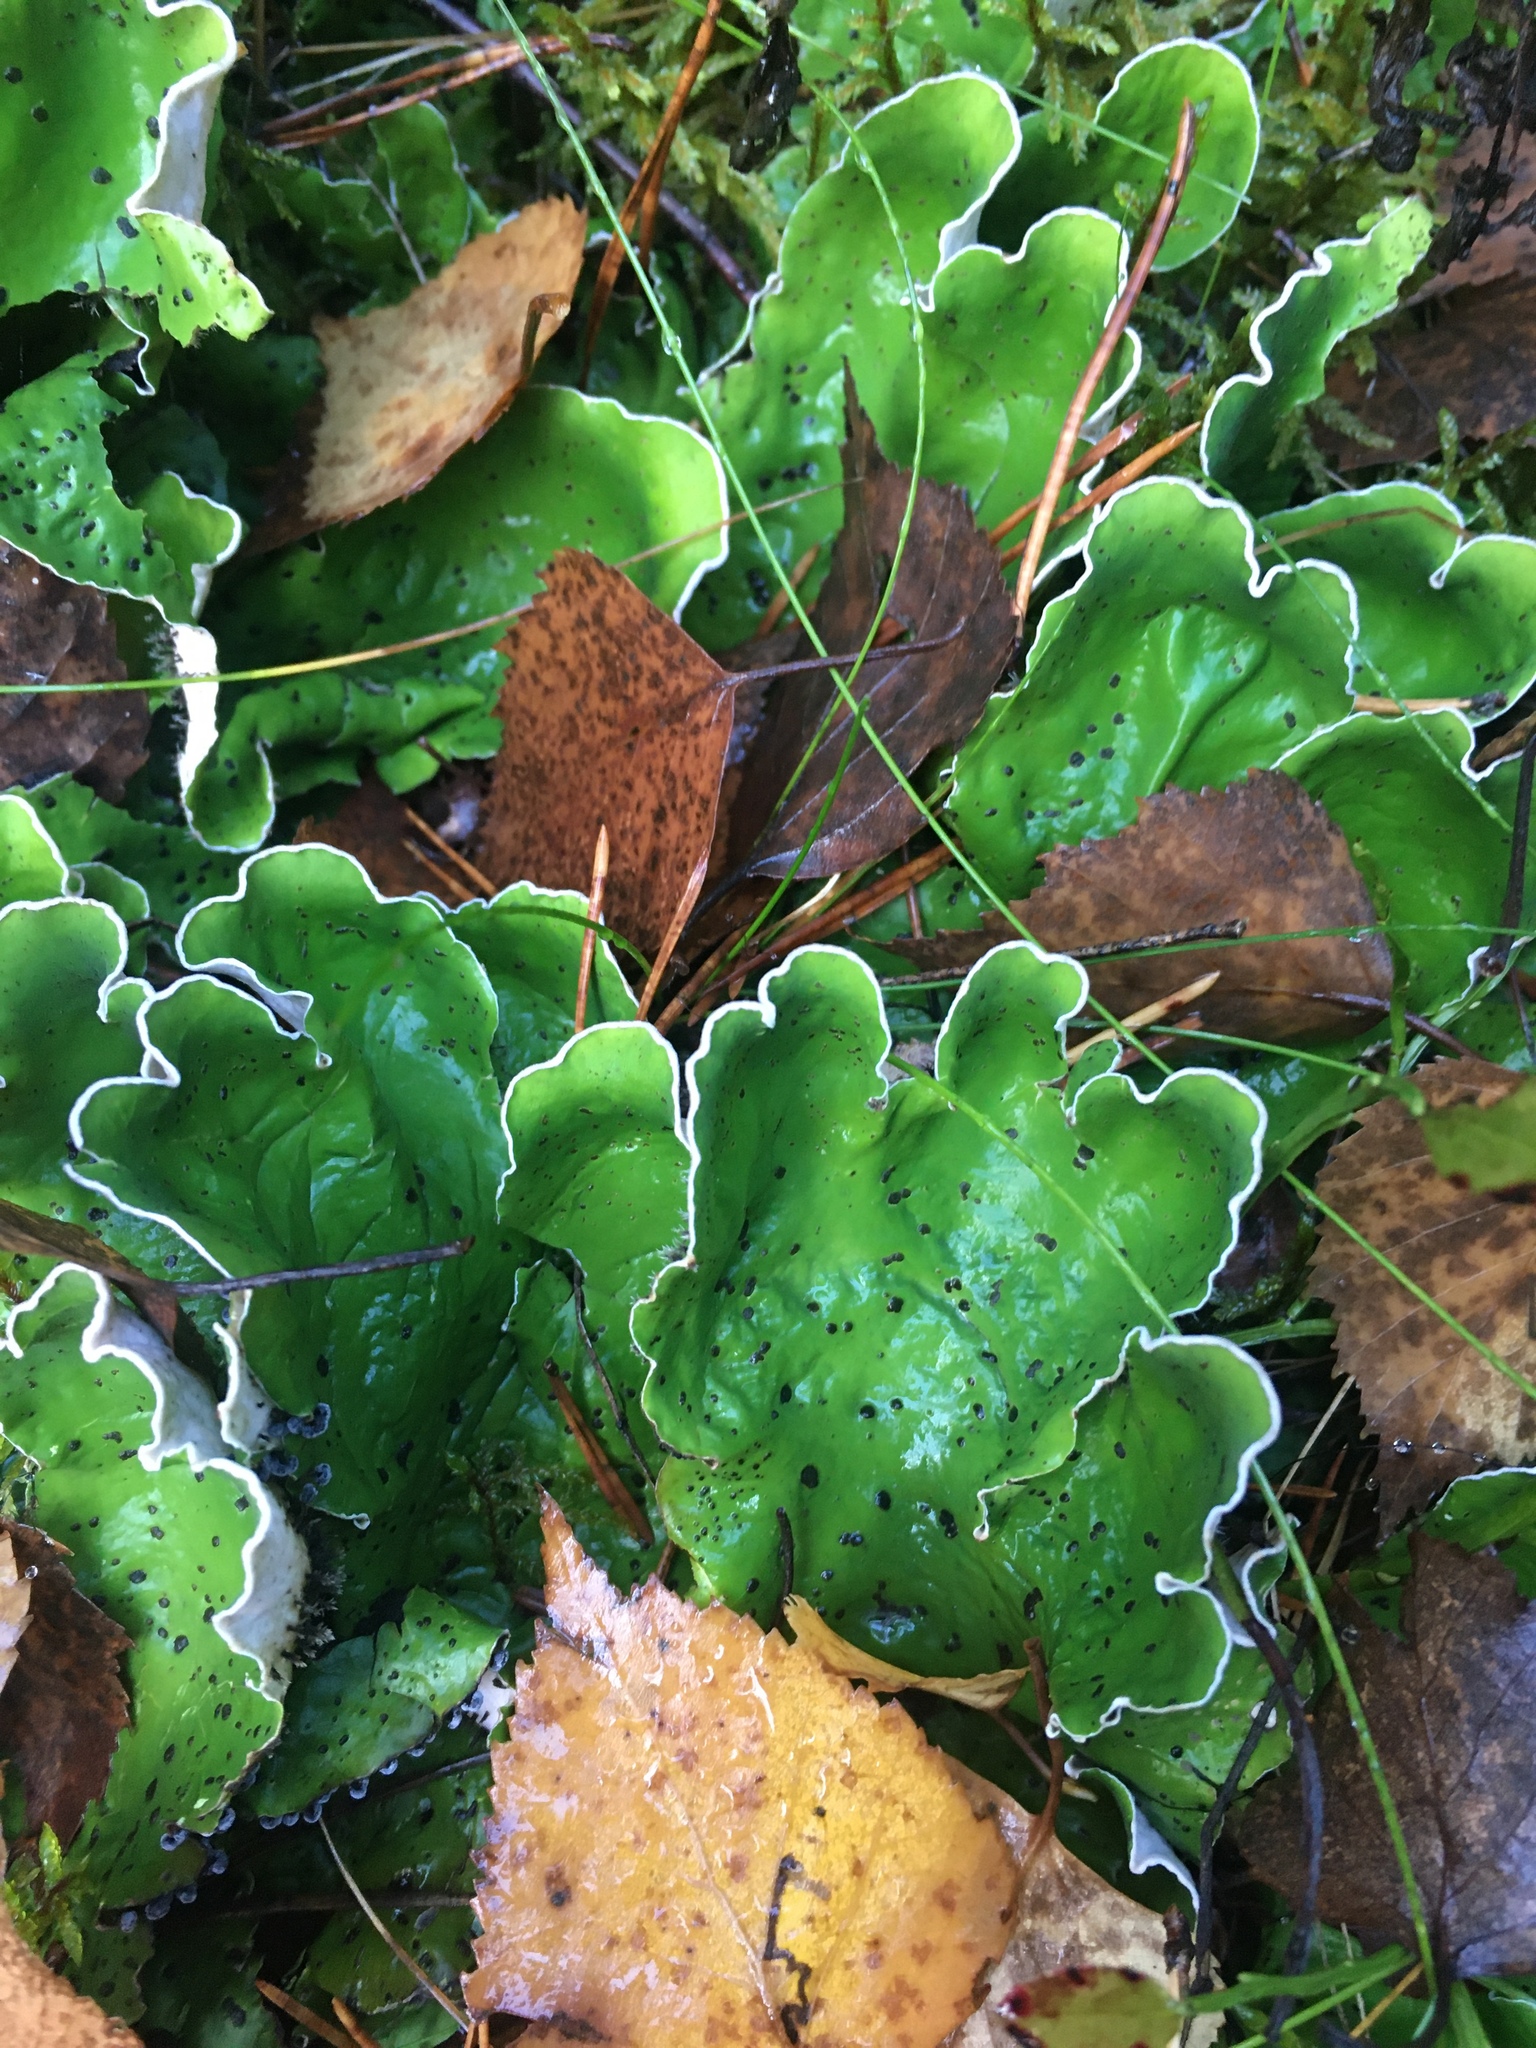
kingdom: Fungi
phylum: Ascomycota
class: Lecanoromycetes
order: Peltigerales
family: Peltigeraceae
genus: Peltigera
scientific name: Peltigera aphthosa
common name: Common freckle pelt lichen
